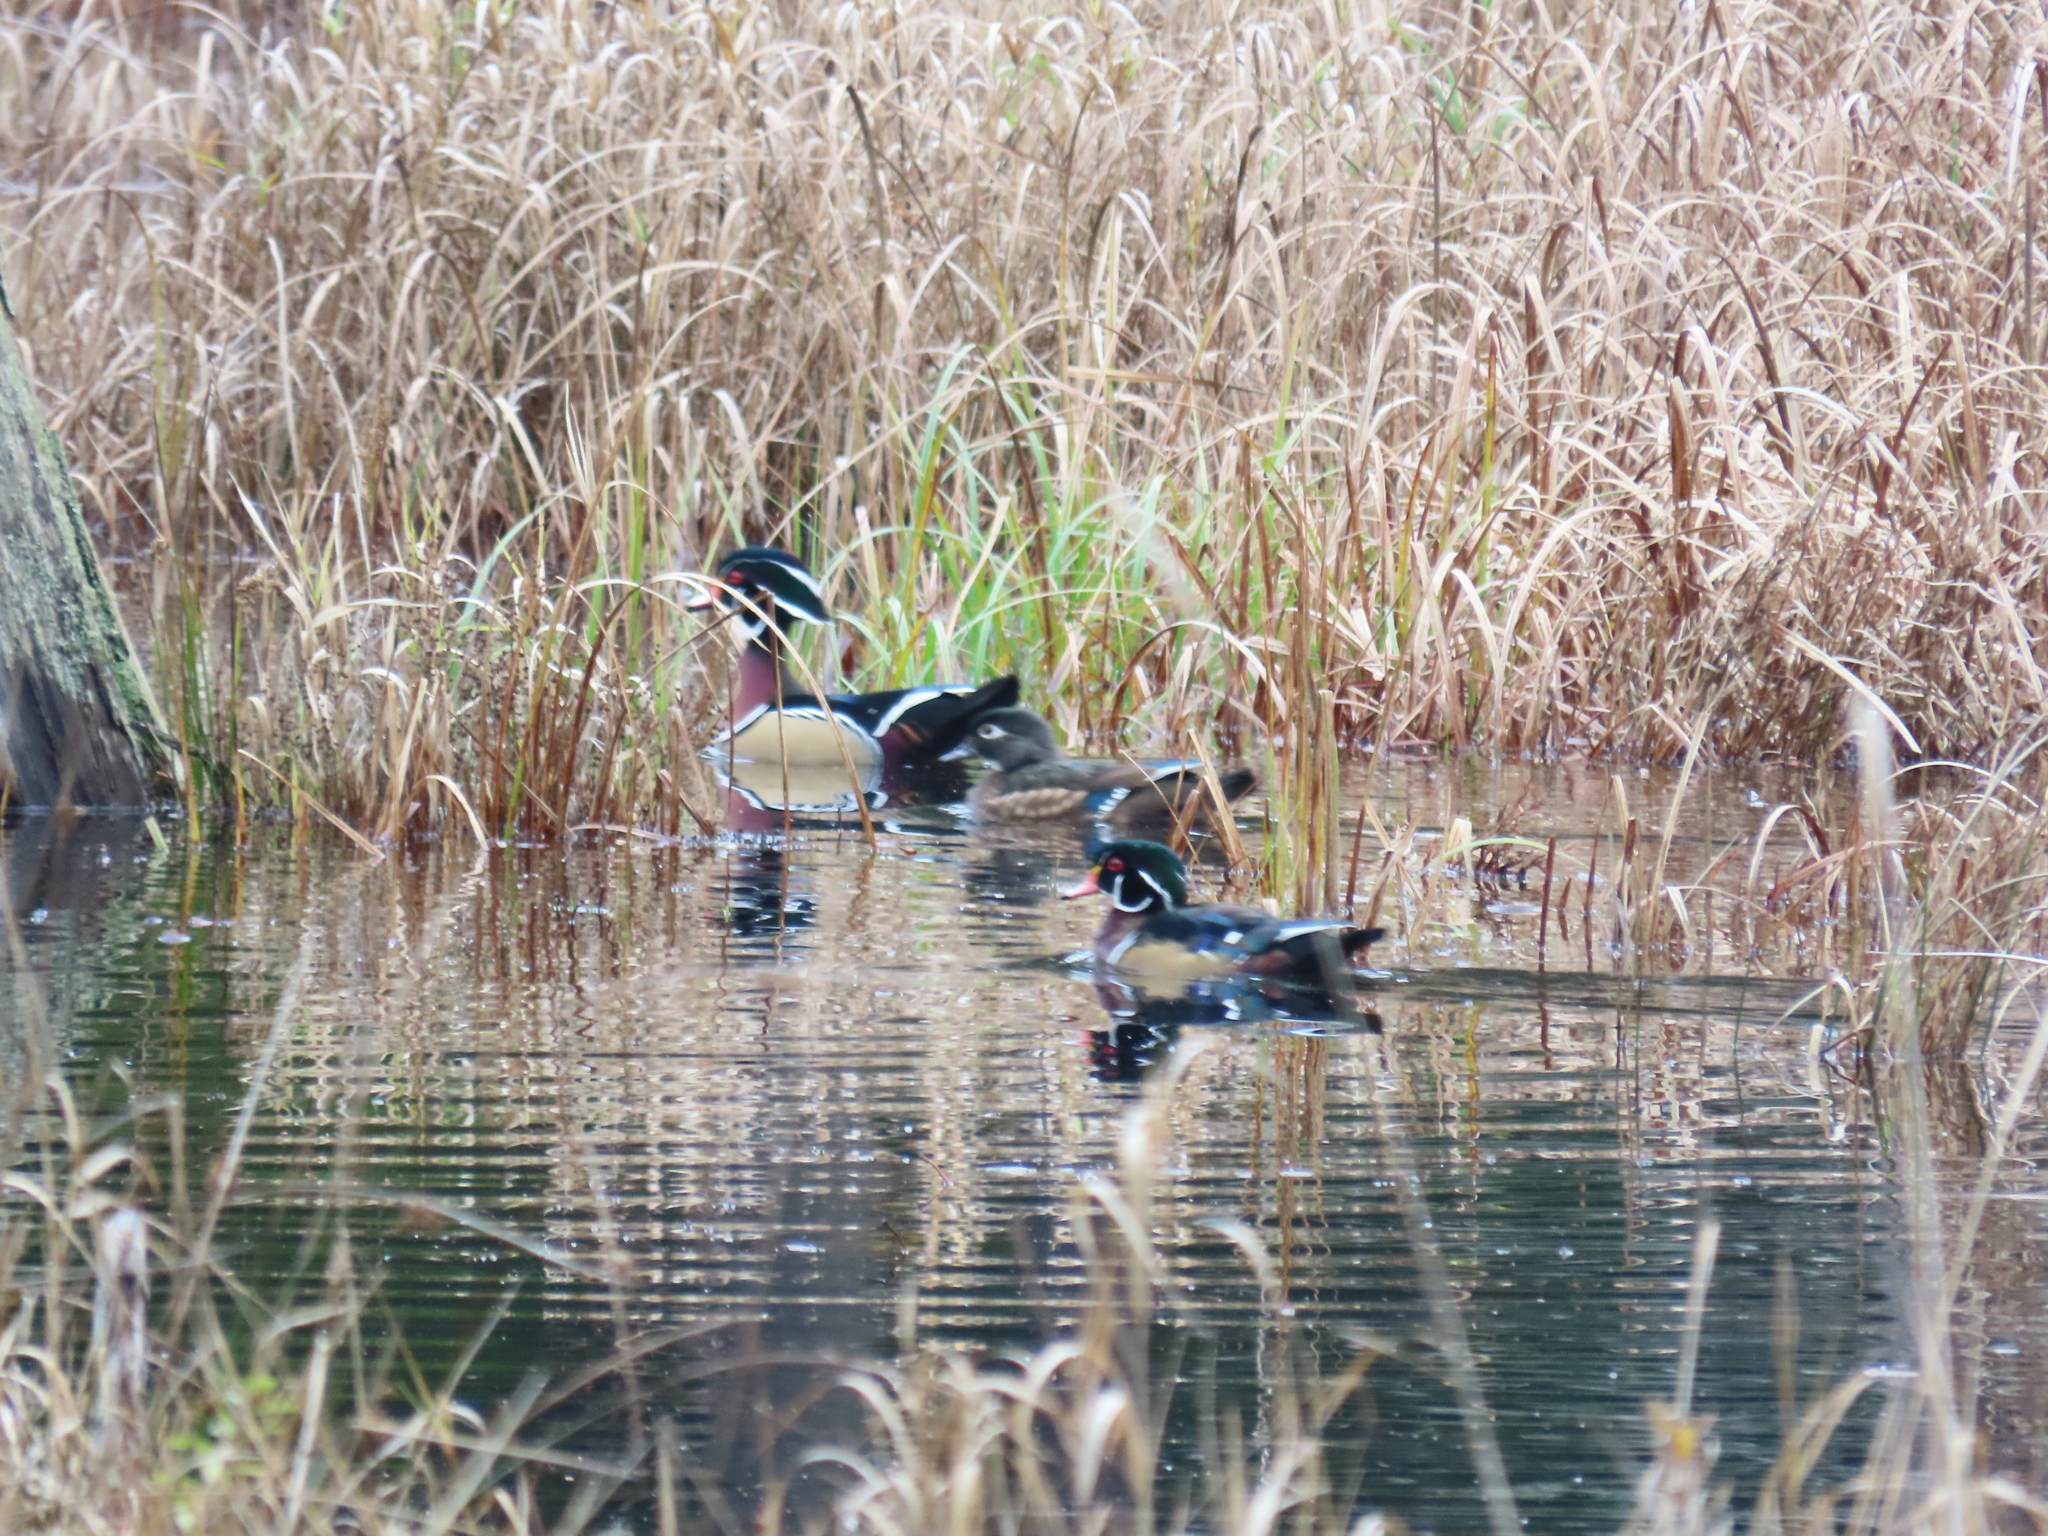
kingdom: Animalia
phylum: Chordata
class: Aves
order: Anseriformes
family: Anatidae
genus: Aix
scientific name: Aix sponsa
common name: Wood duck
